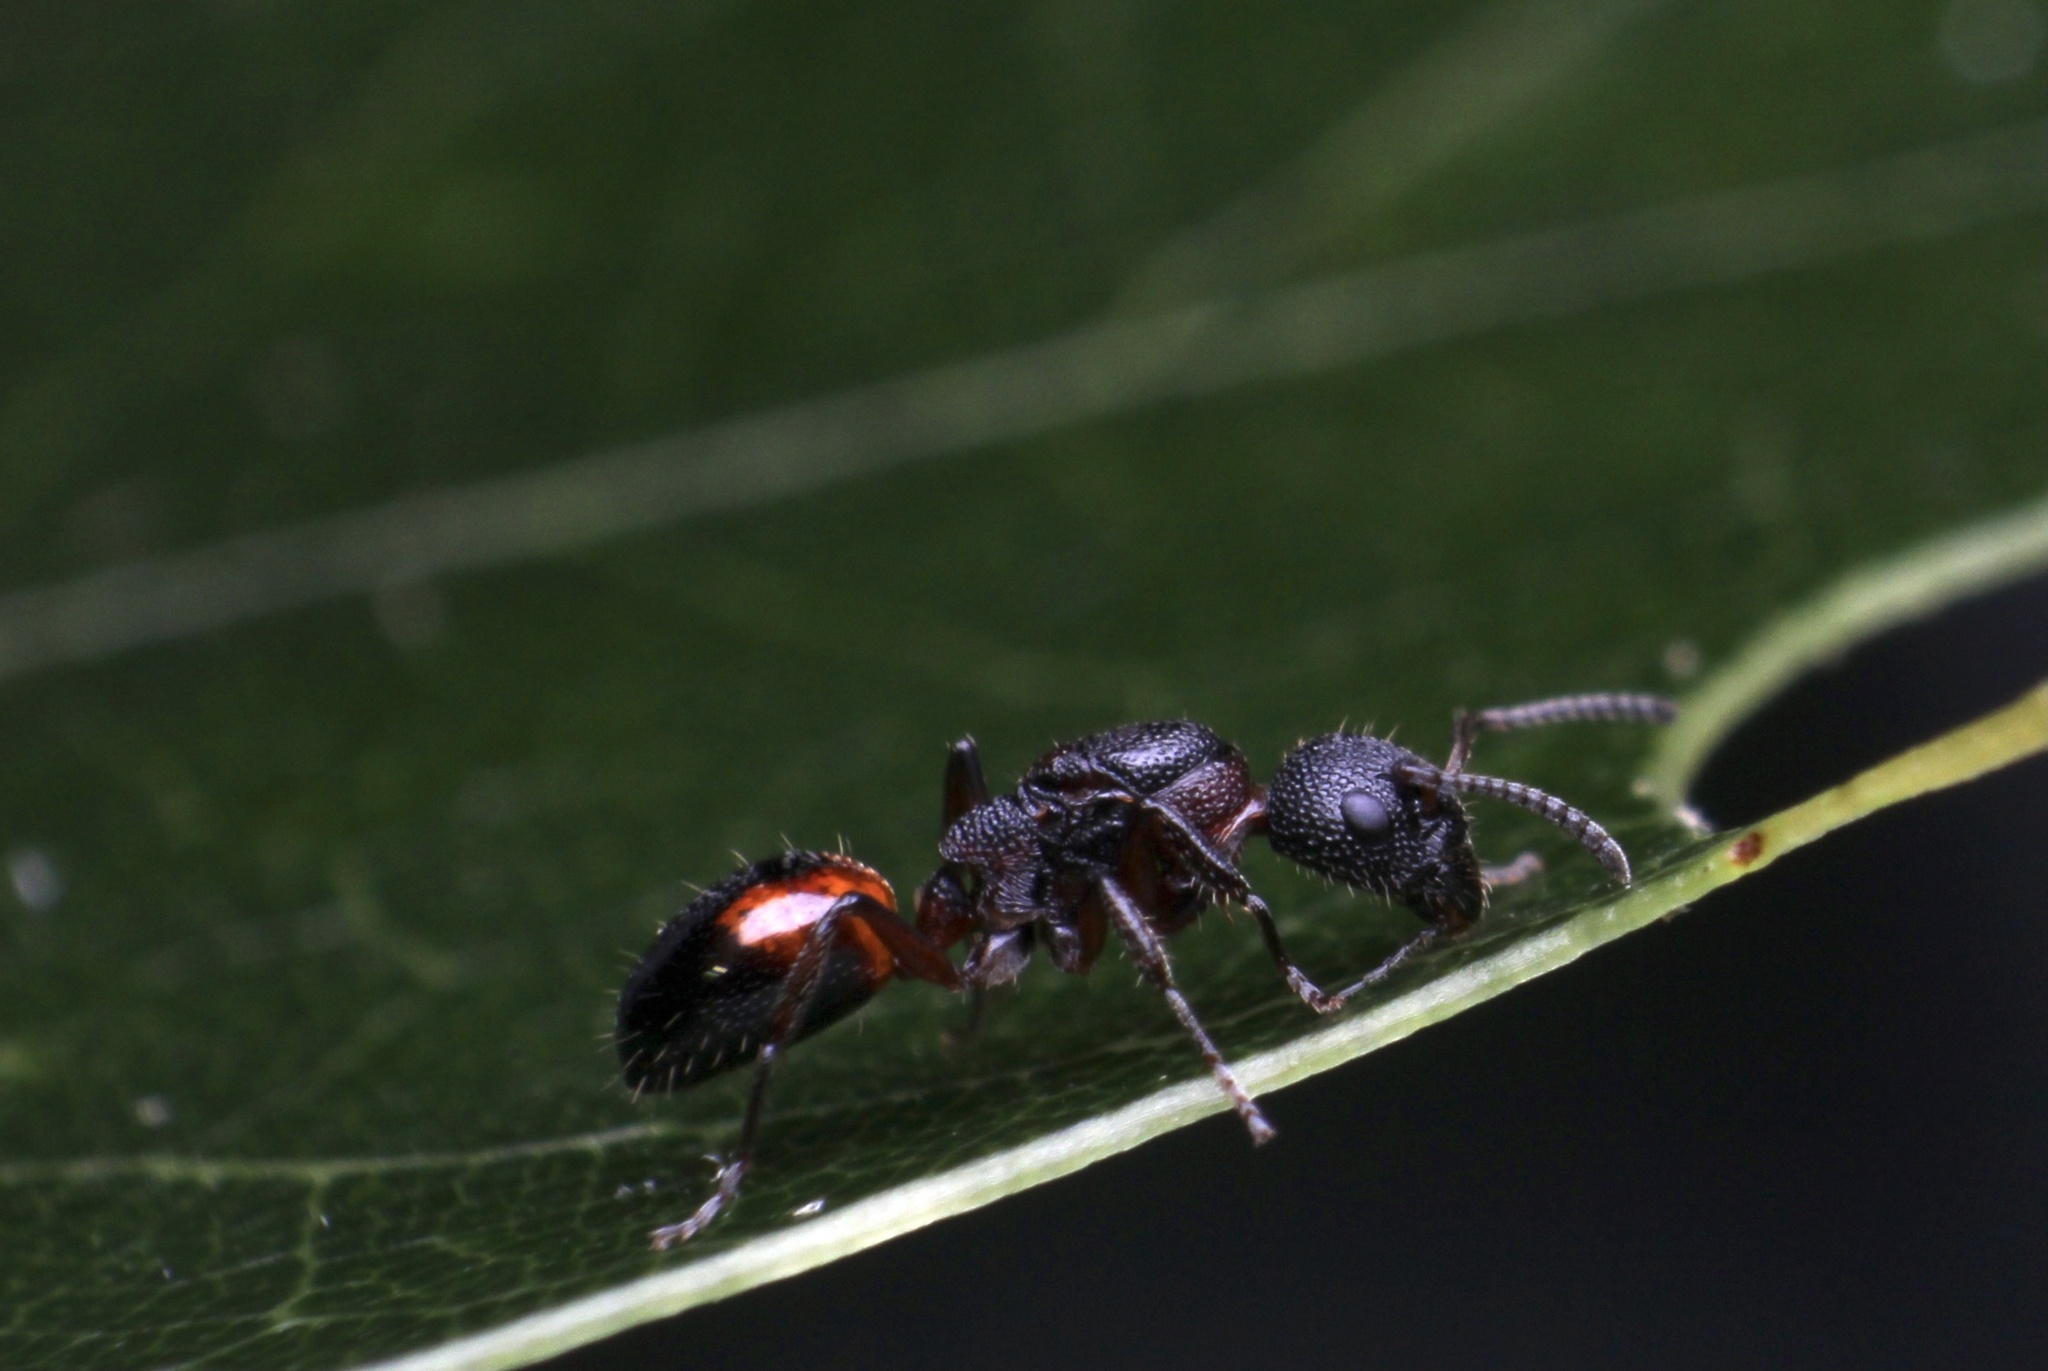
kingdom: Animalia
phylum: Arthropoda
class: Insecta
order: Hymenoptera
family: Formicidae
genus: Dolichoderus
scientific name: Dolichoderus plagiatus
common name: Mottled dolichoderus
